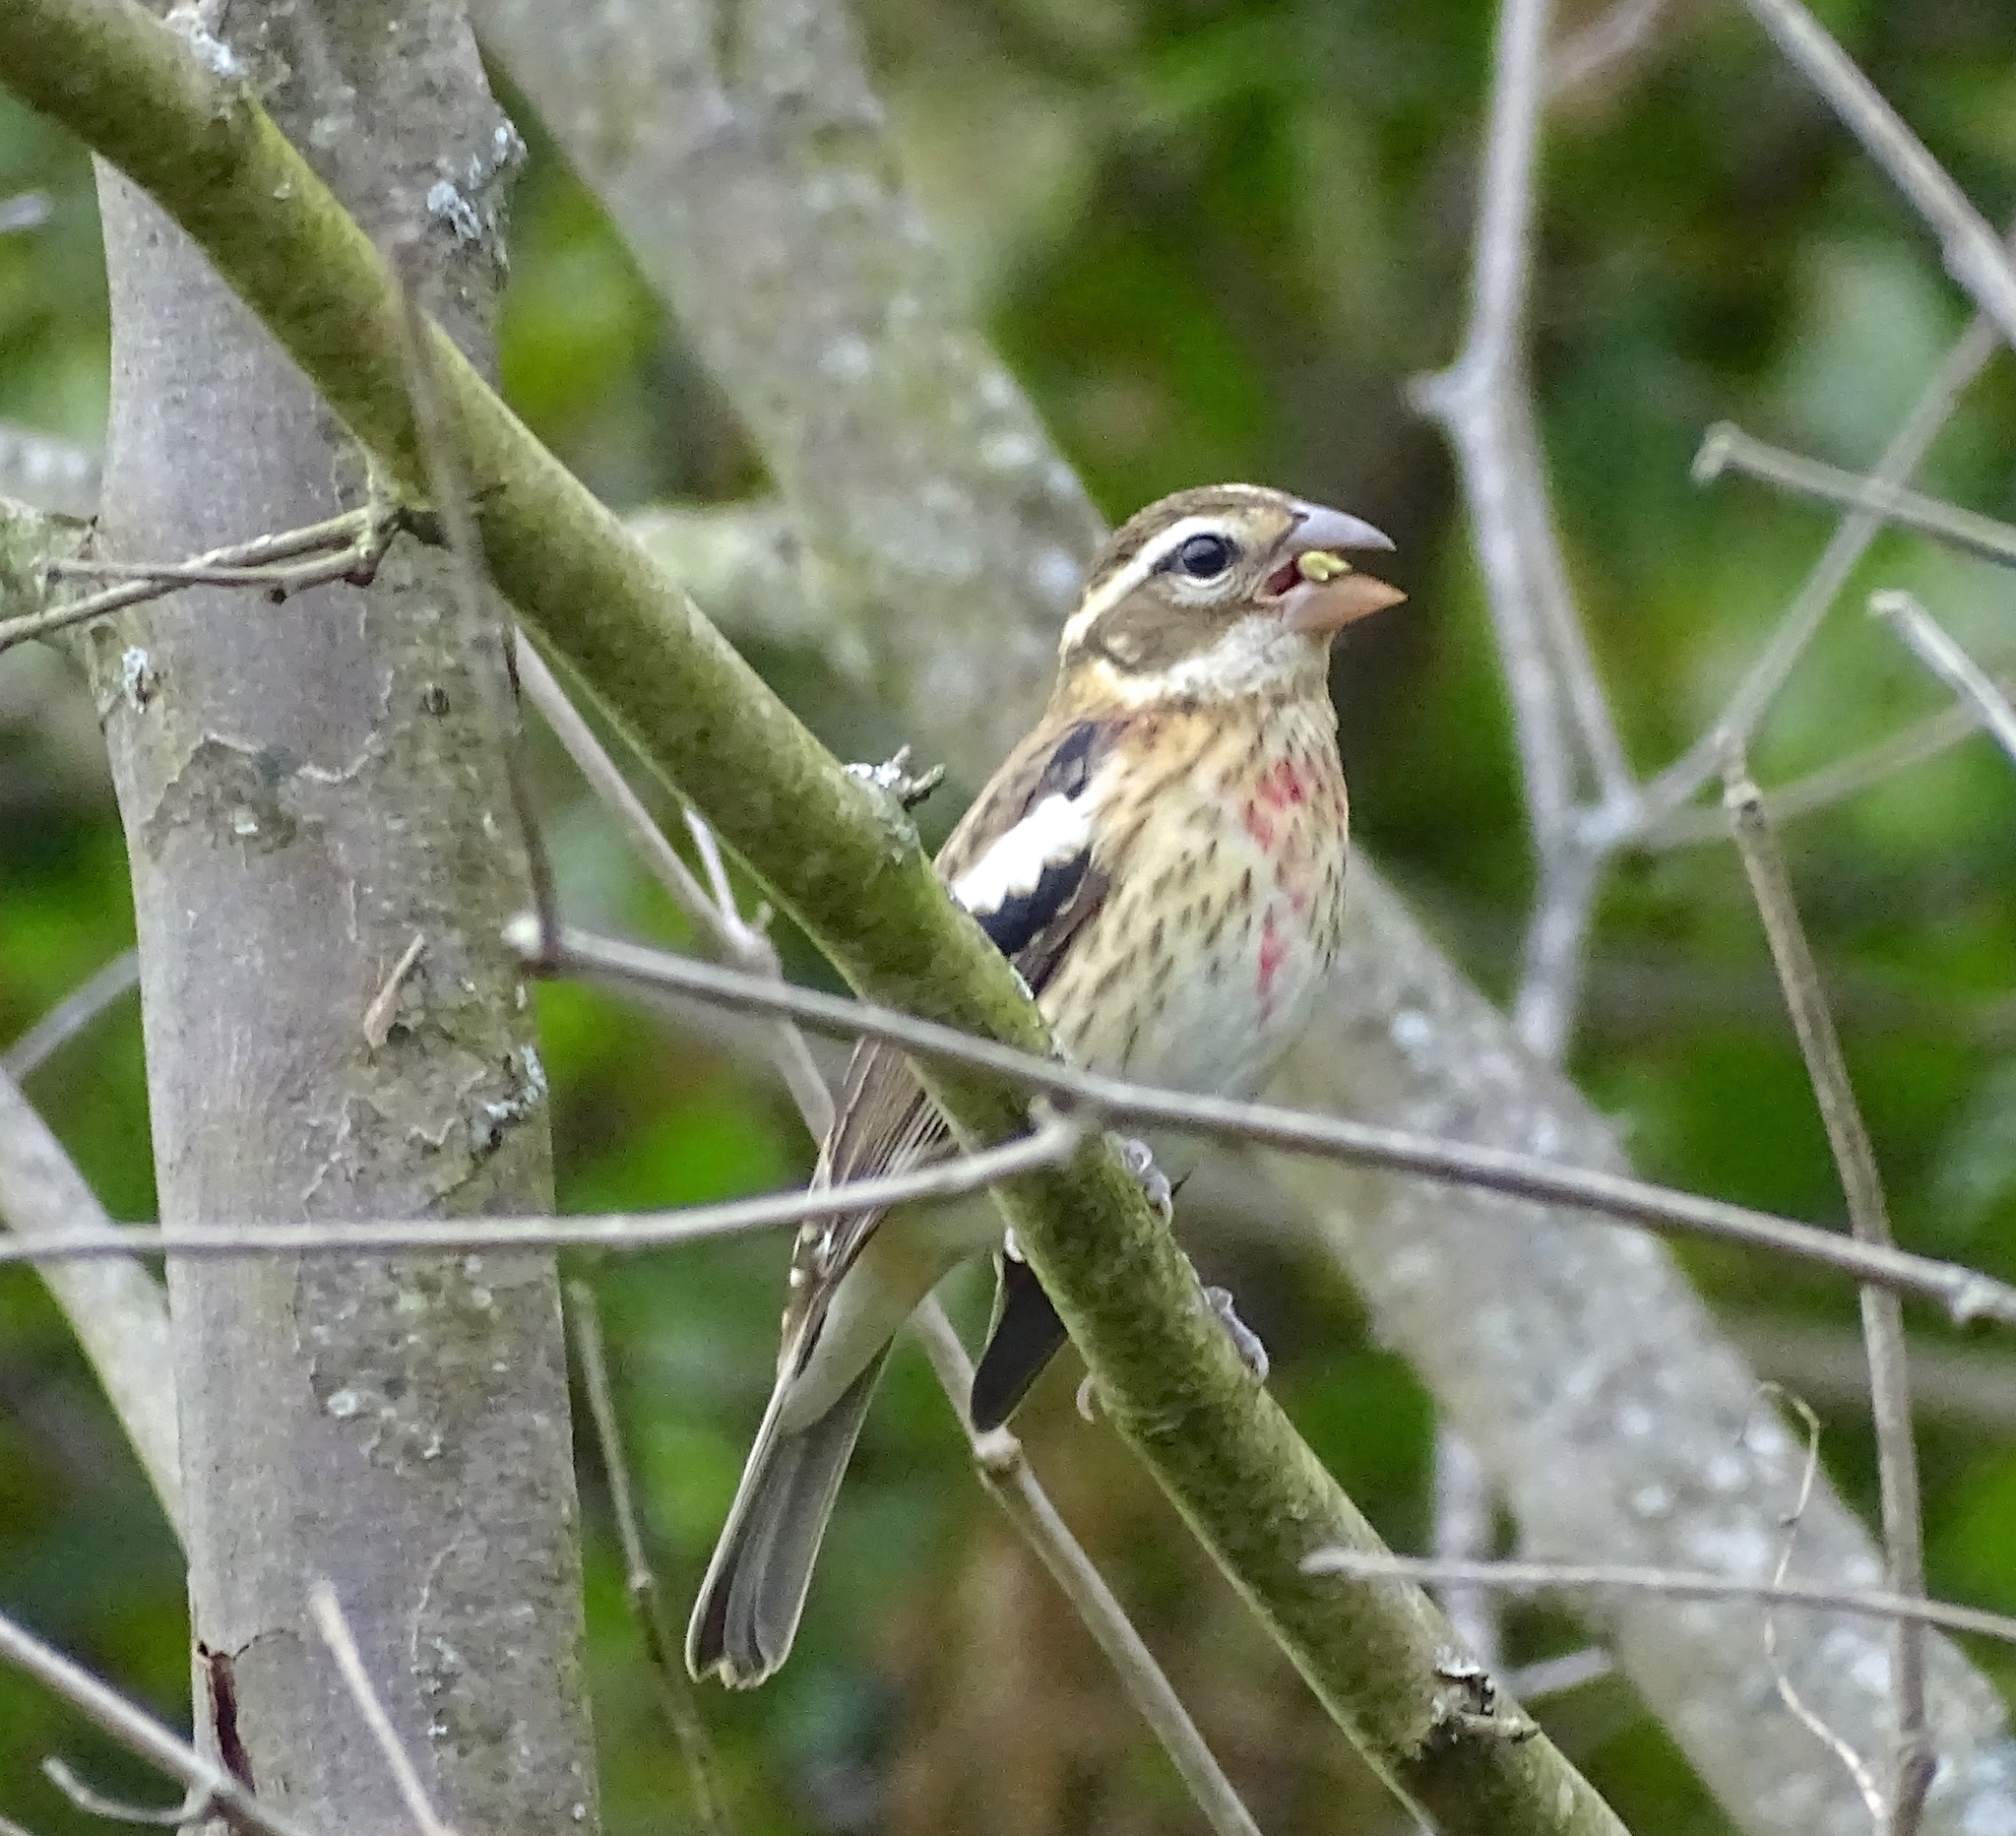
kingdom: Animalia
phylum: Chordata
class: Aves
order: Passeriformes
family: Cardinalidae
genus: Pheucticus
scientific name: Pheucticus ludovicianus
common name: Rose-breasted grosbeak
